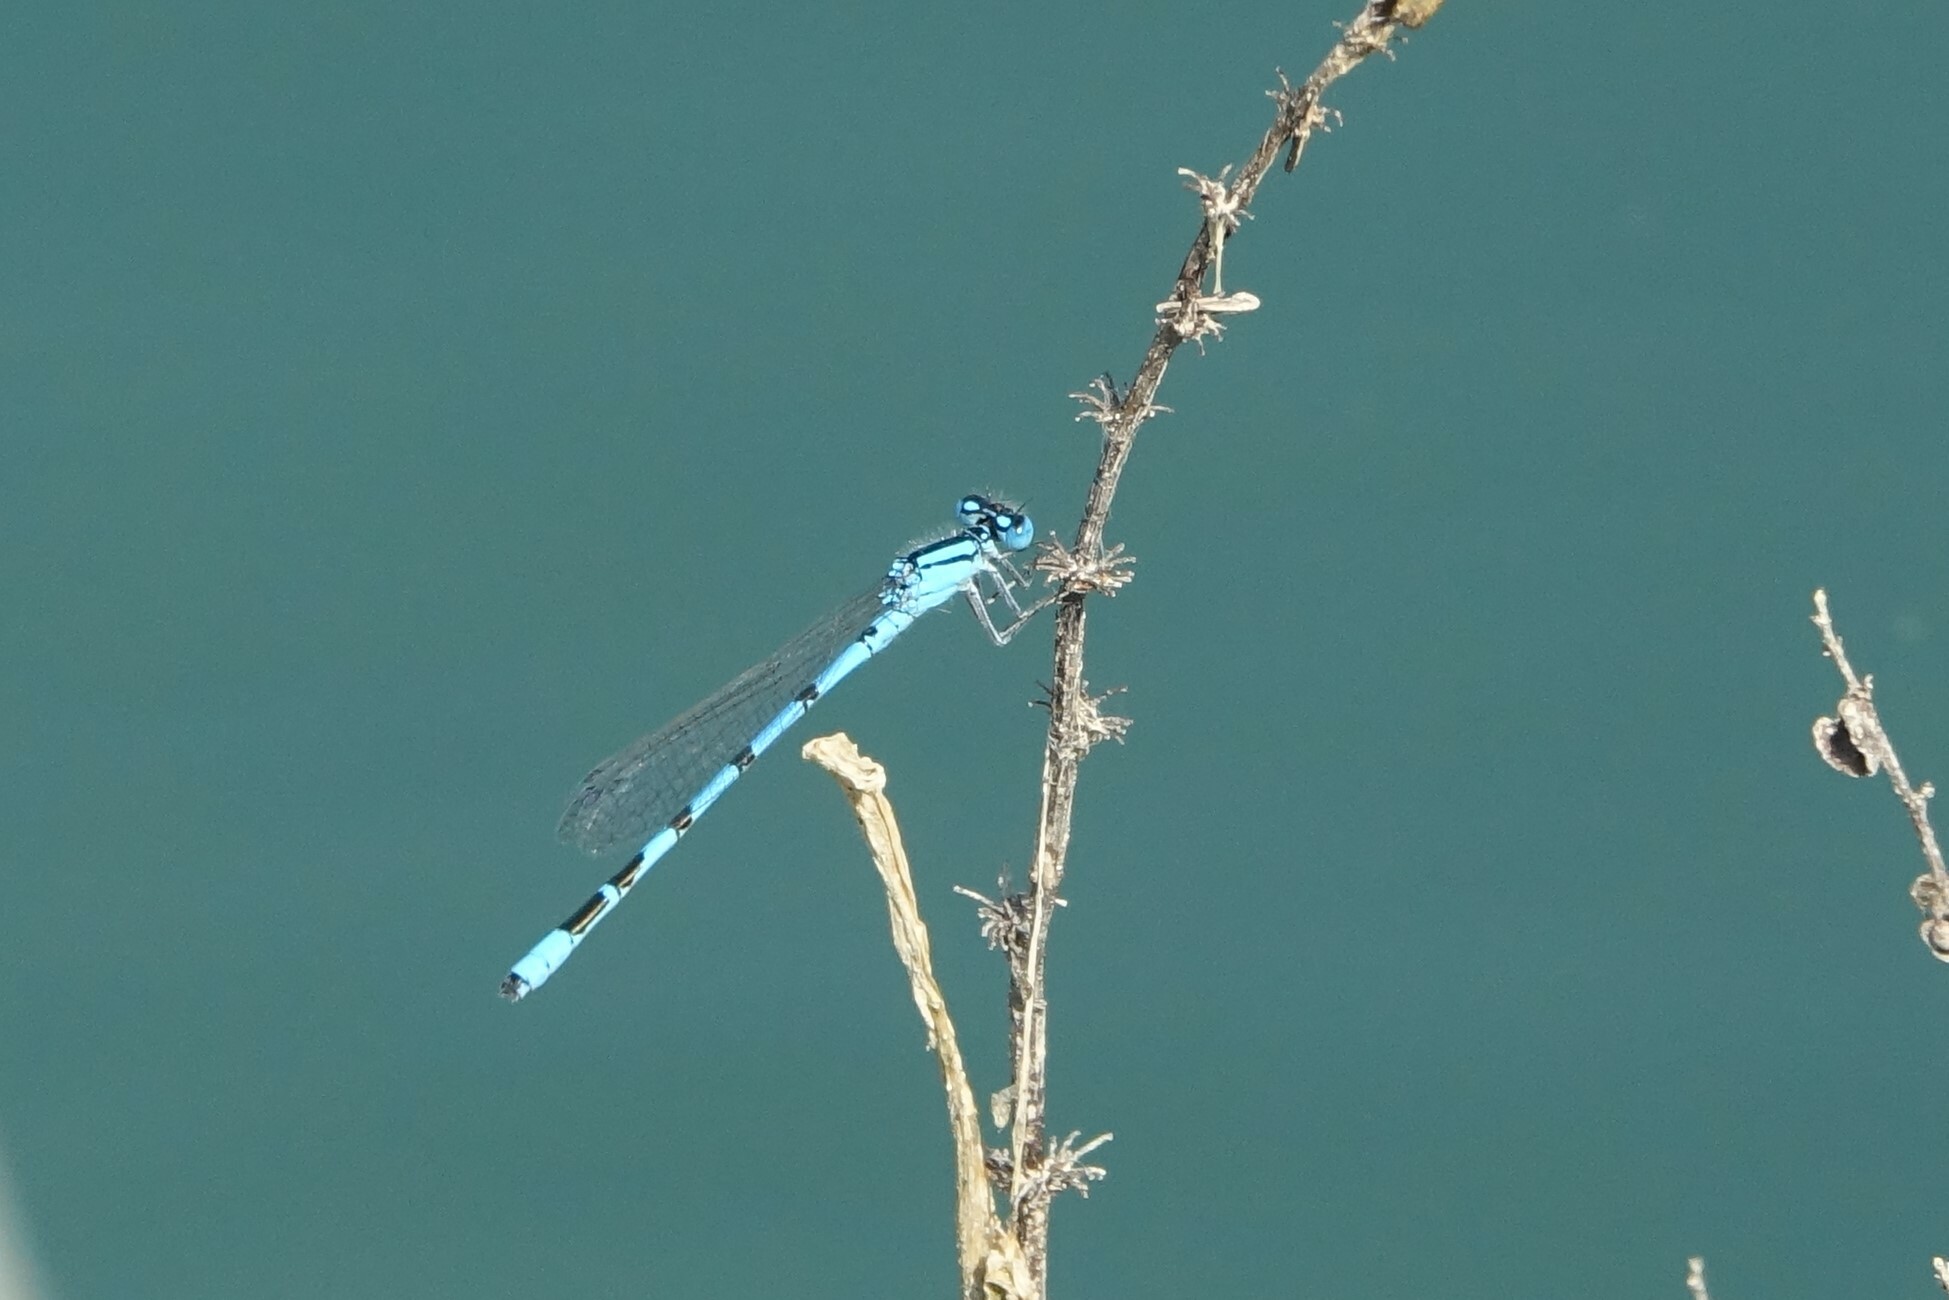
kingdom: Animalia
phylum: Arthropoda
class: Insecta
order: Odonata
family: Coenagrionidae
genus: Enallagma
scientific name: Enallagma cyathigerum
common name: Common blue damselfly
